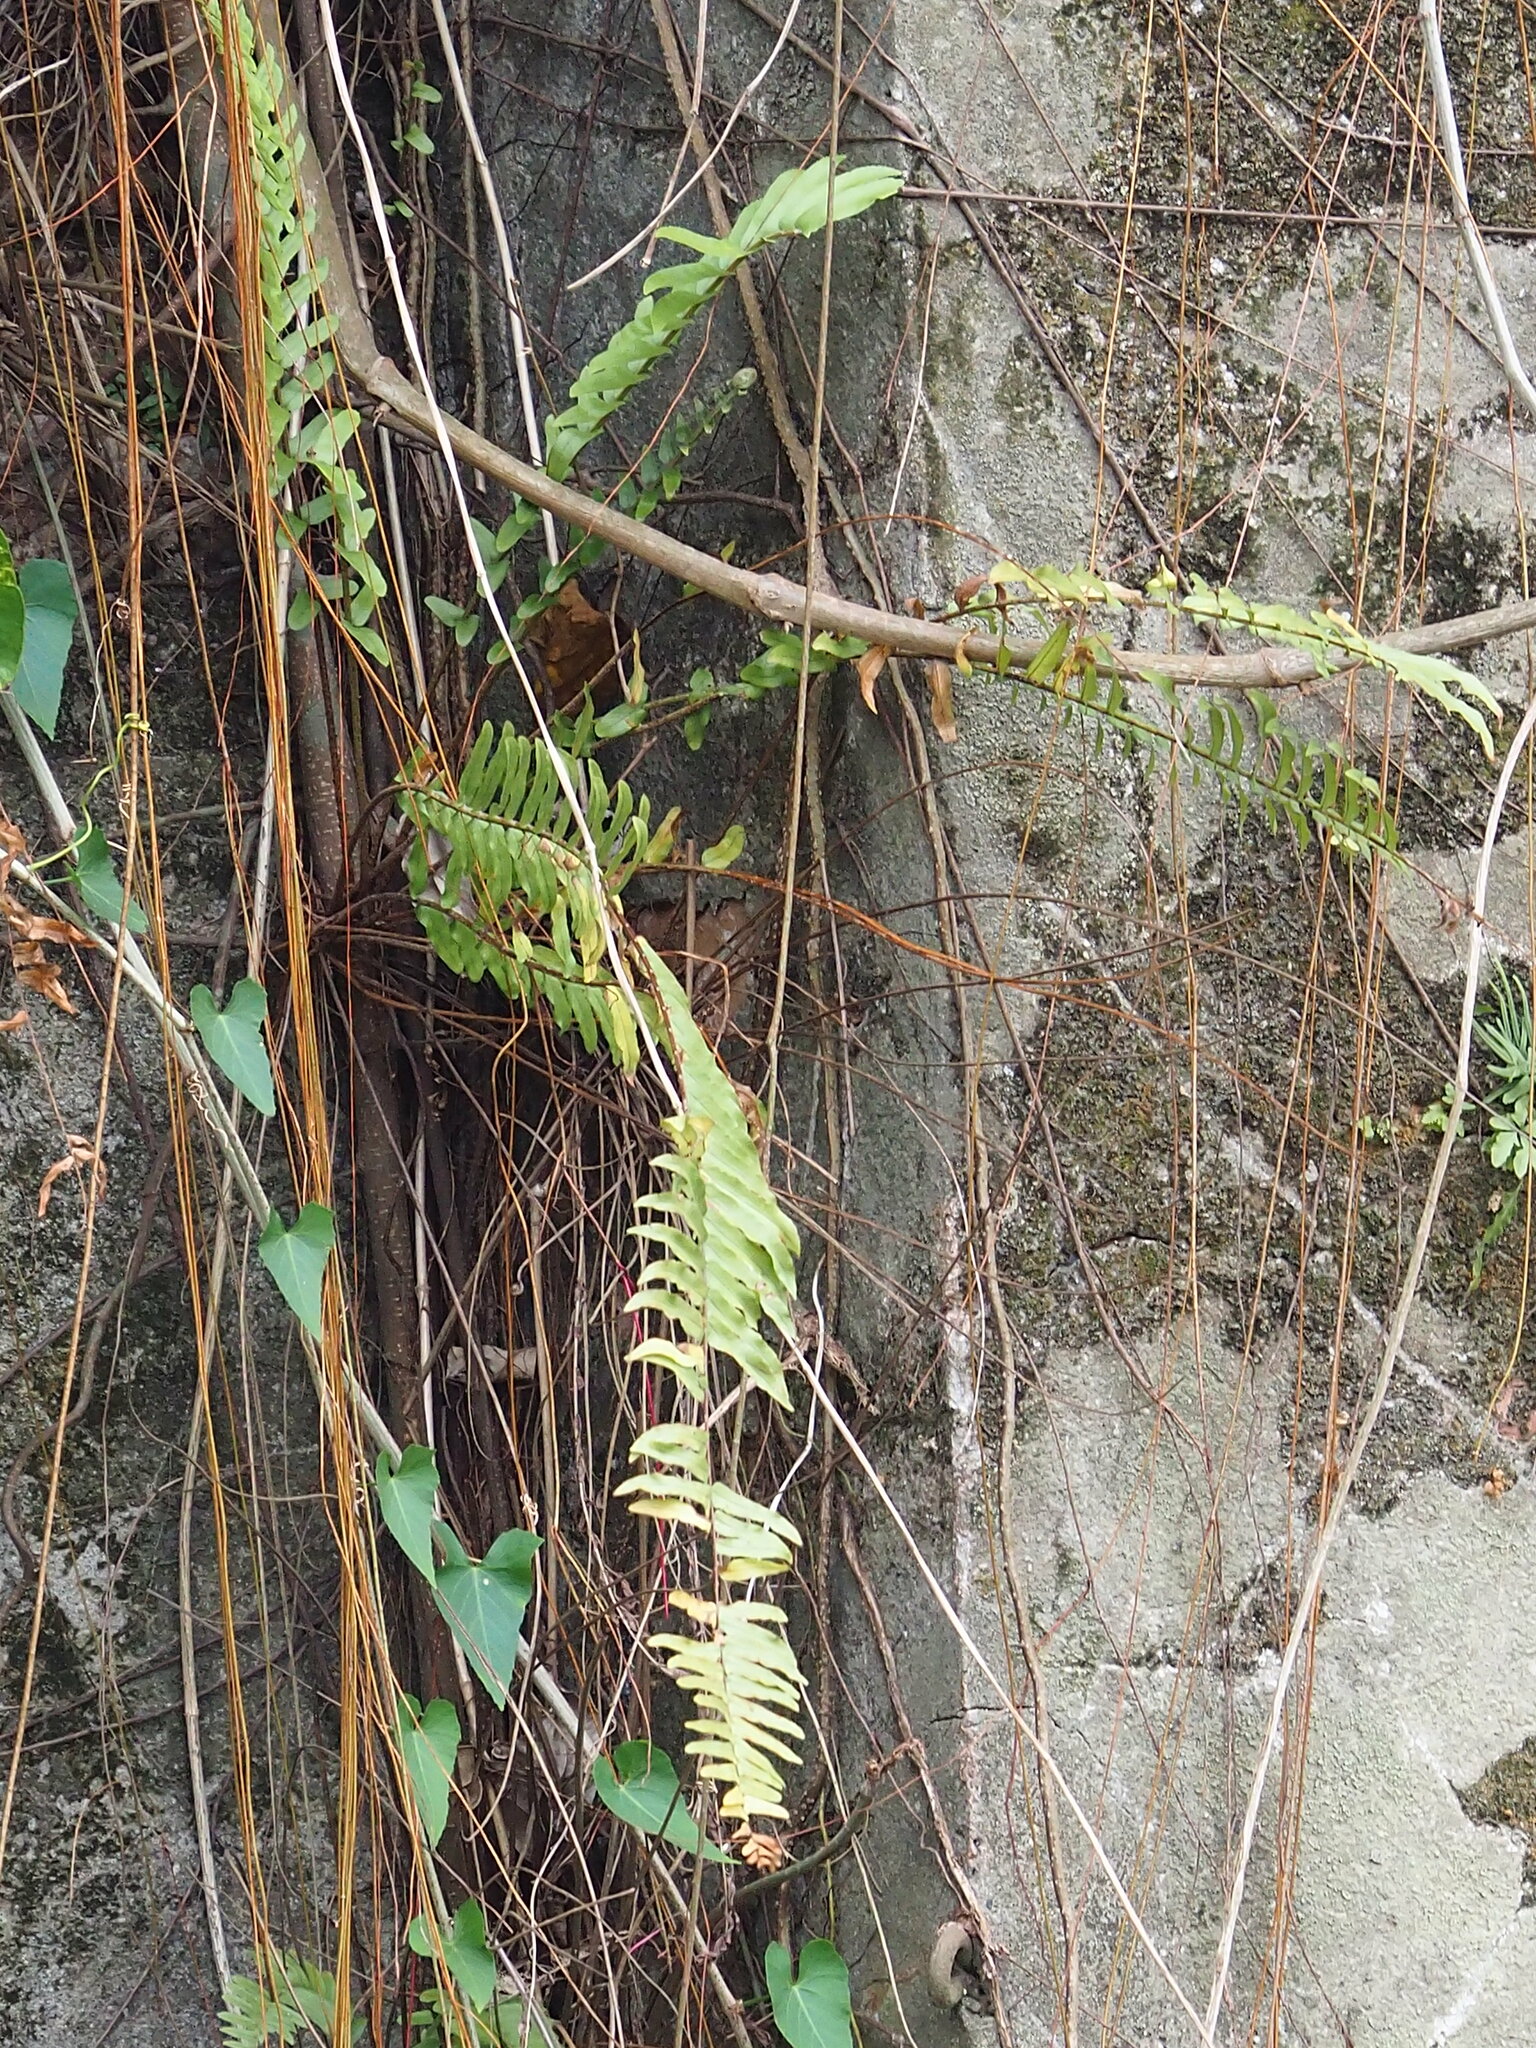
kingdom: Plantae
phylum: Tracheophyta
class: Polypodiopsida
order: Polypodiales
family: Nephrolepidaceae
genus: Nephrolepis
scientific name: Nephrolepis cordifolia
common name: Narrow swordfern
